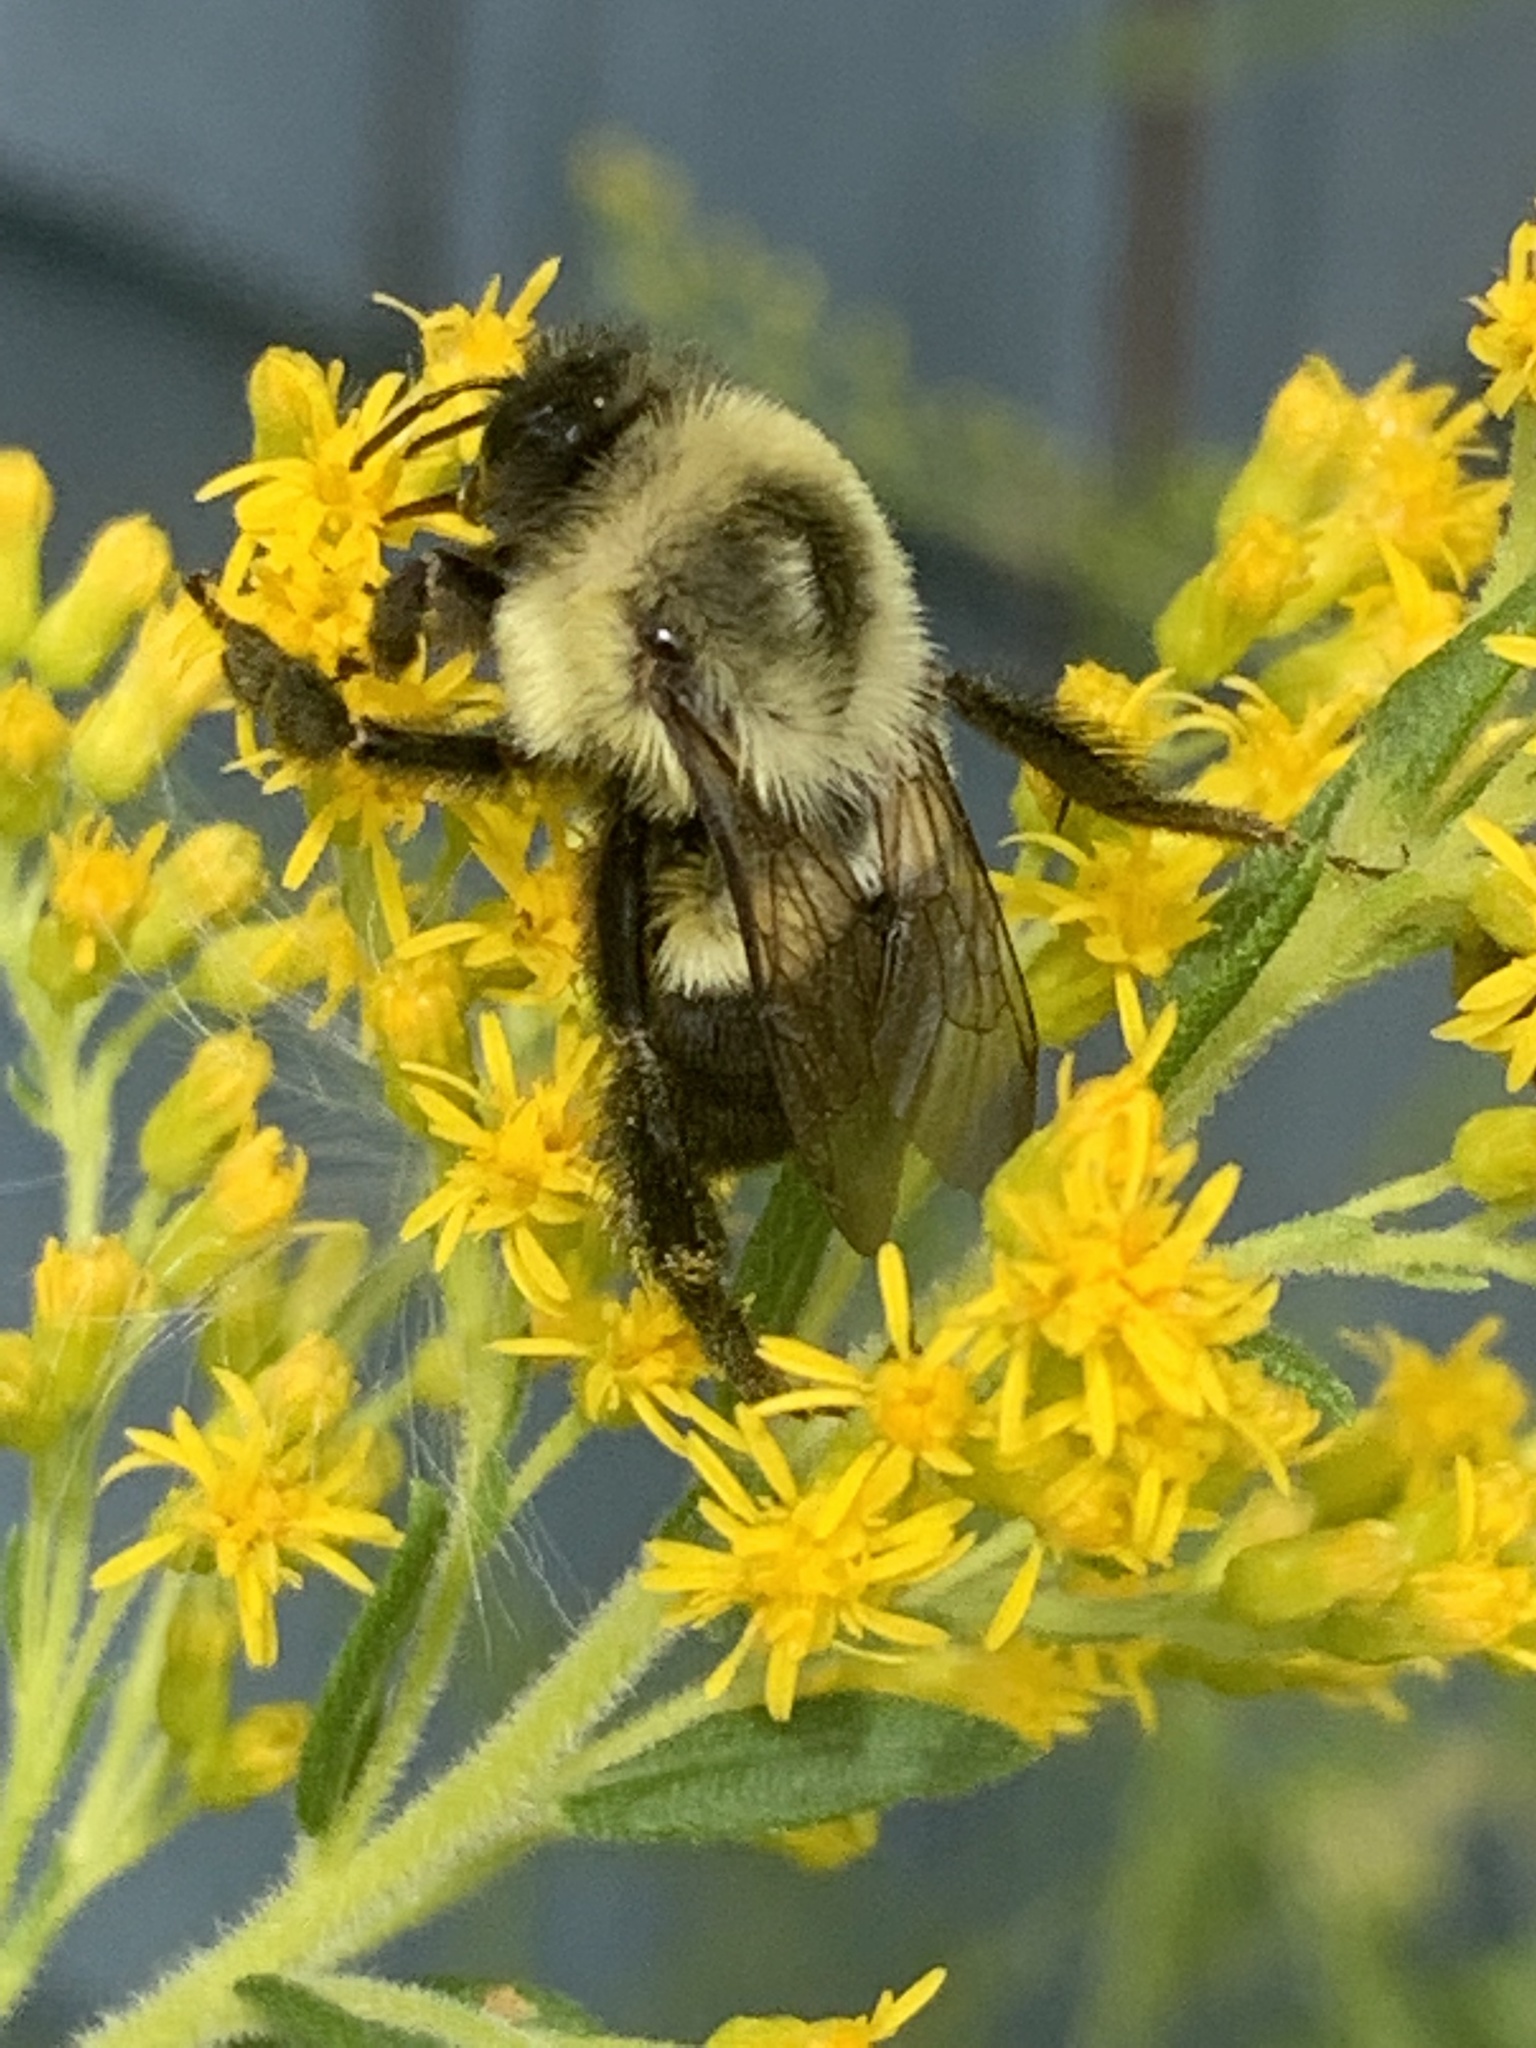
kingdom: Animalia
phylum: Arthropoda
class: Insecta
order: Hymenoptera
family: Apidae
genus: Bombus
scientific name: Bombus impatiens
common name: Common eastern bumble bee
